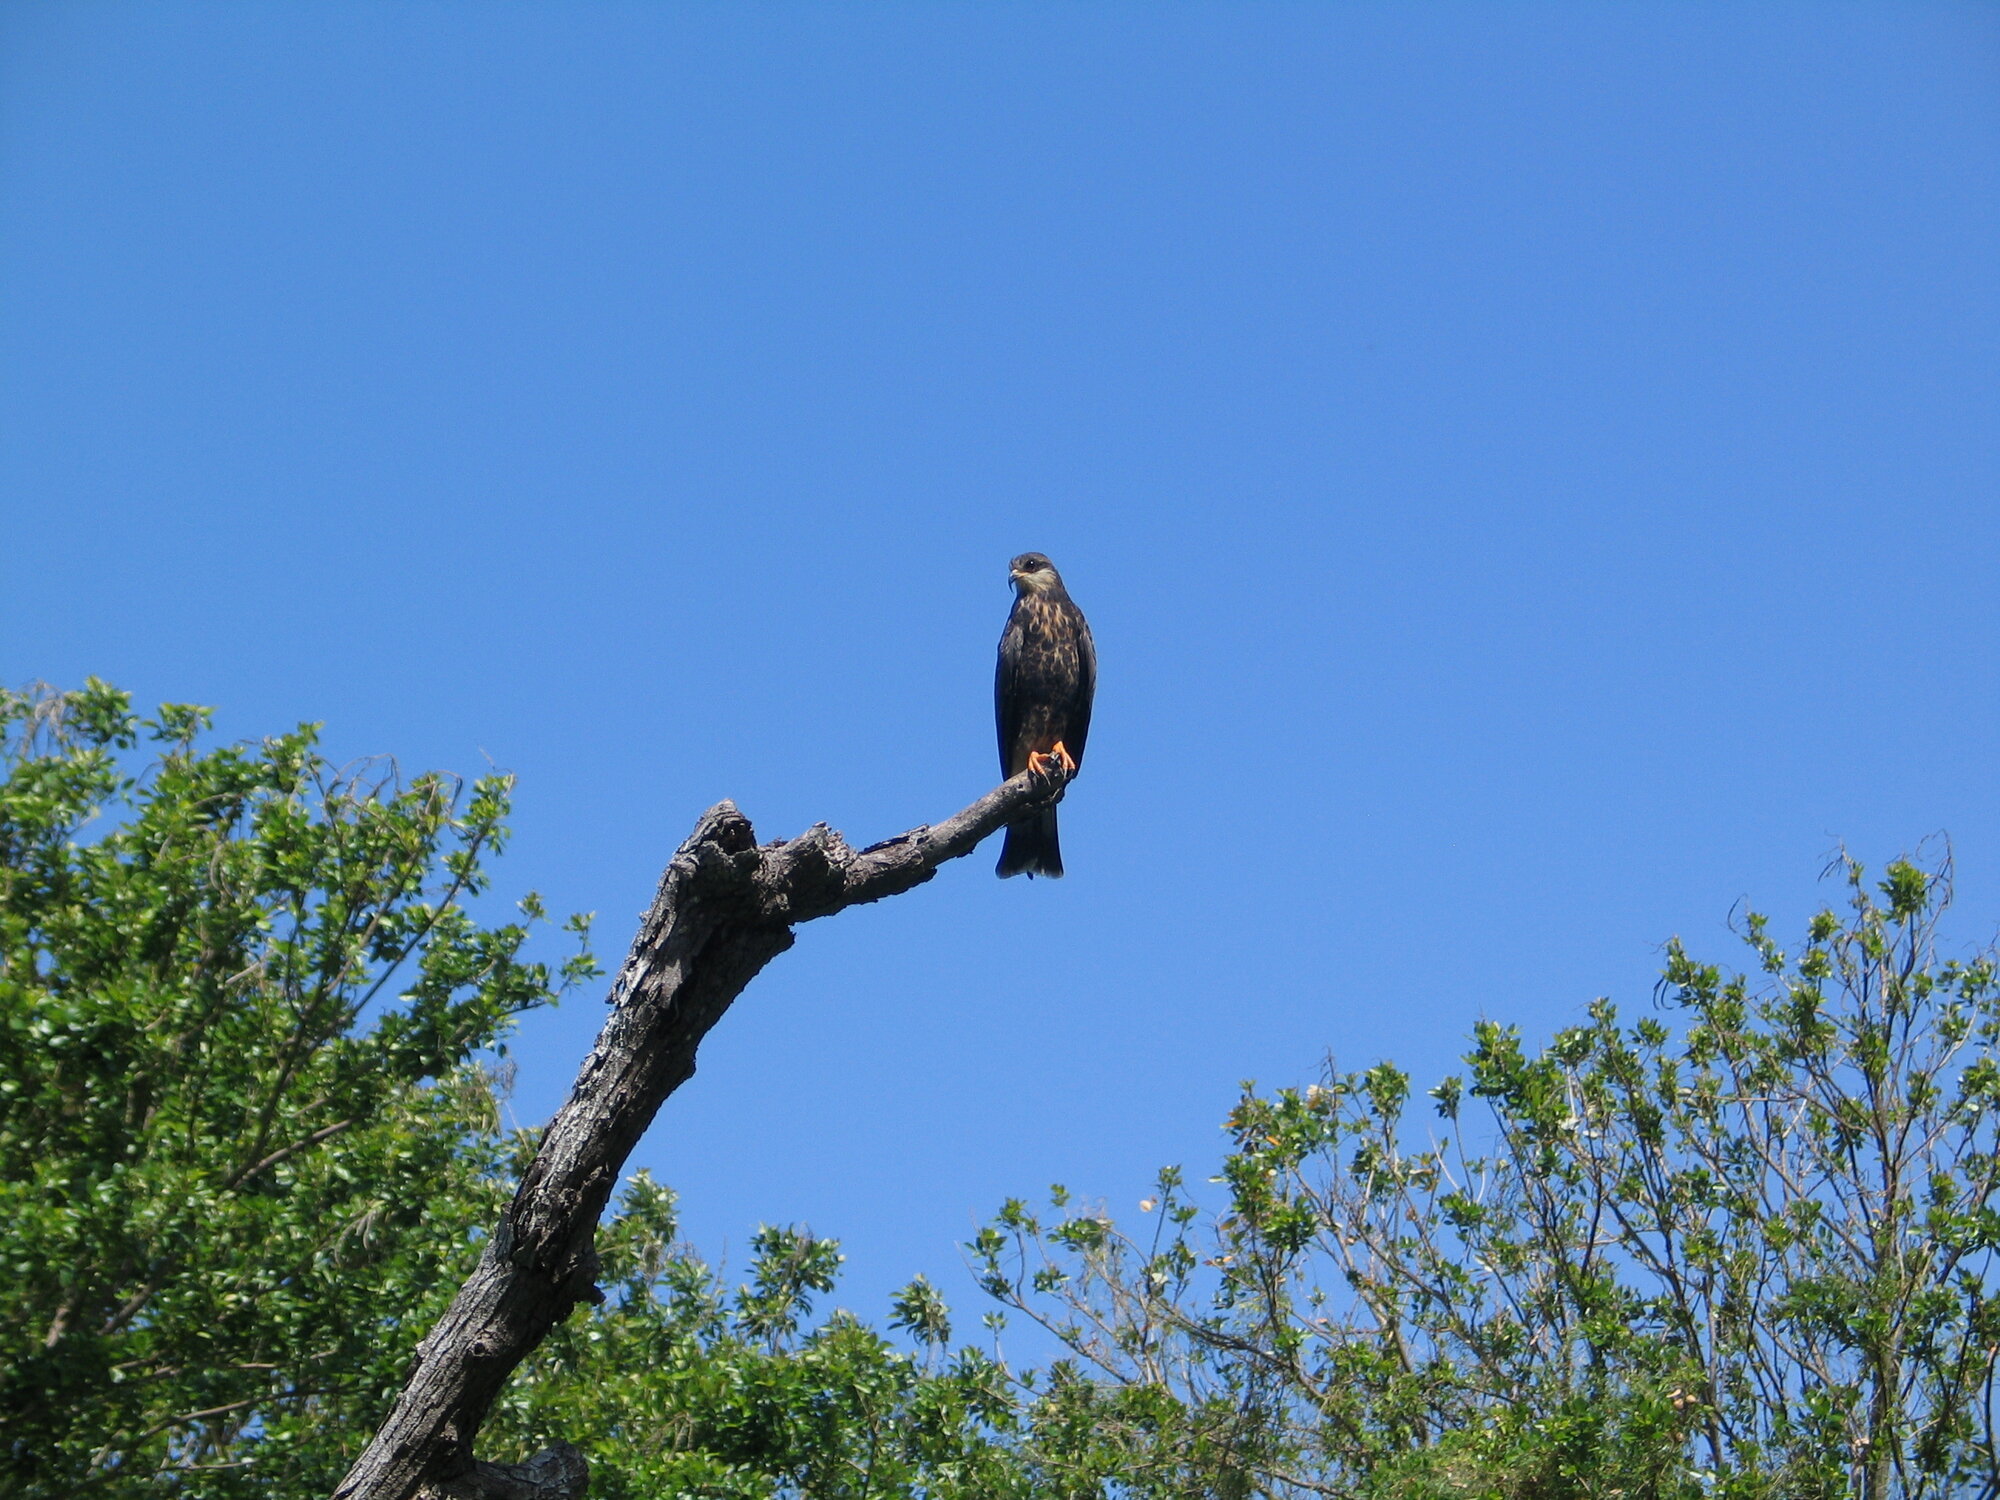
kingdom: Animalia
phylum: Chordata
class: Aves
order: Accipitriformes
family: Accipitridae
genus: Rostrhamus
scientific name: Rostrhamus sociabilis
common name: Snail kite
